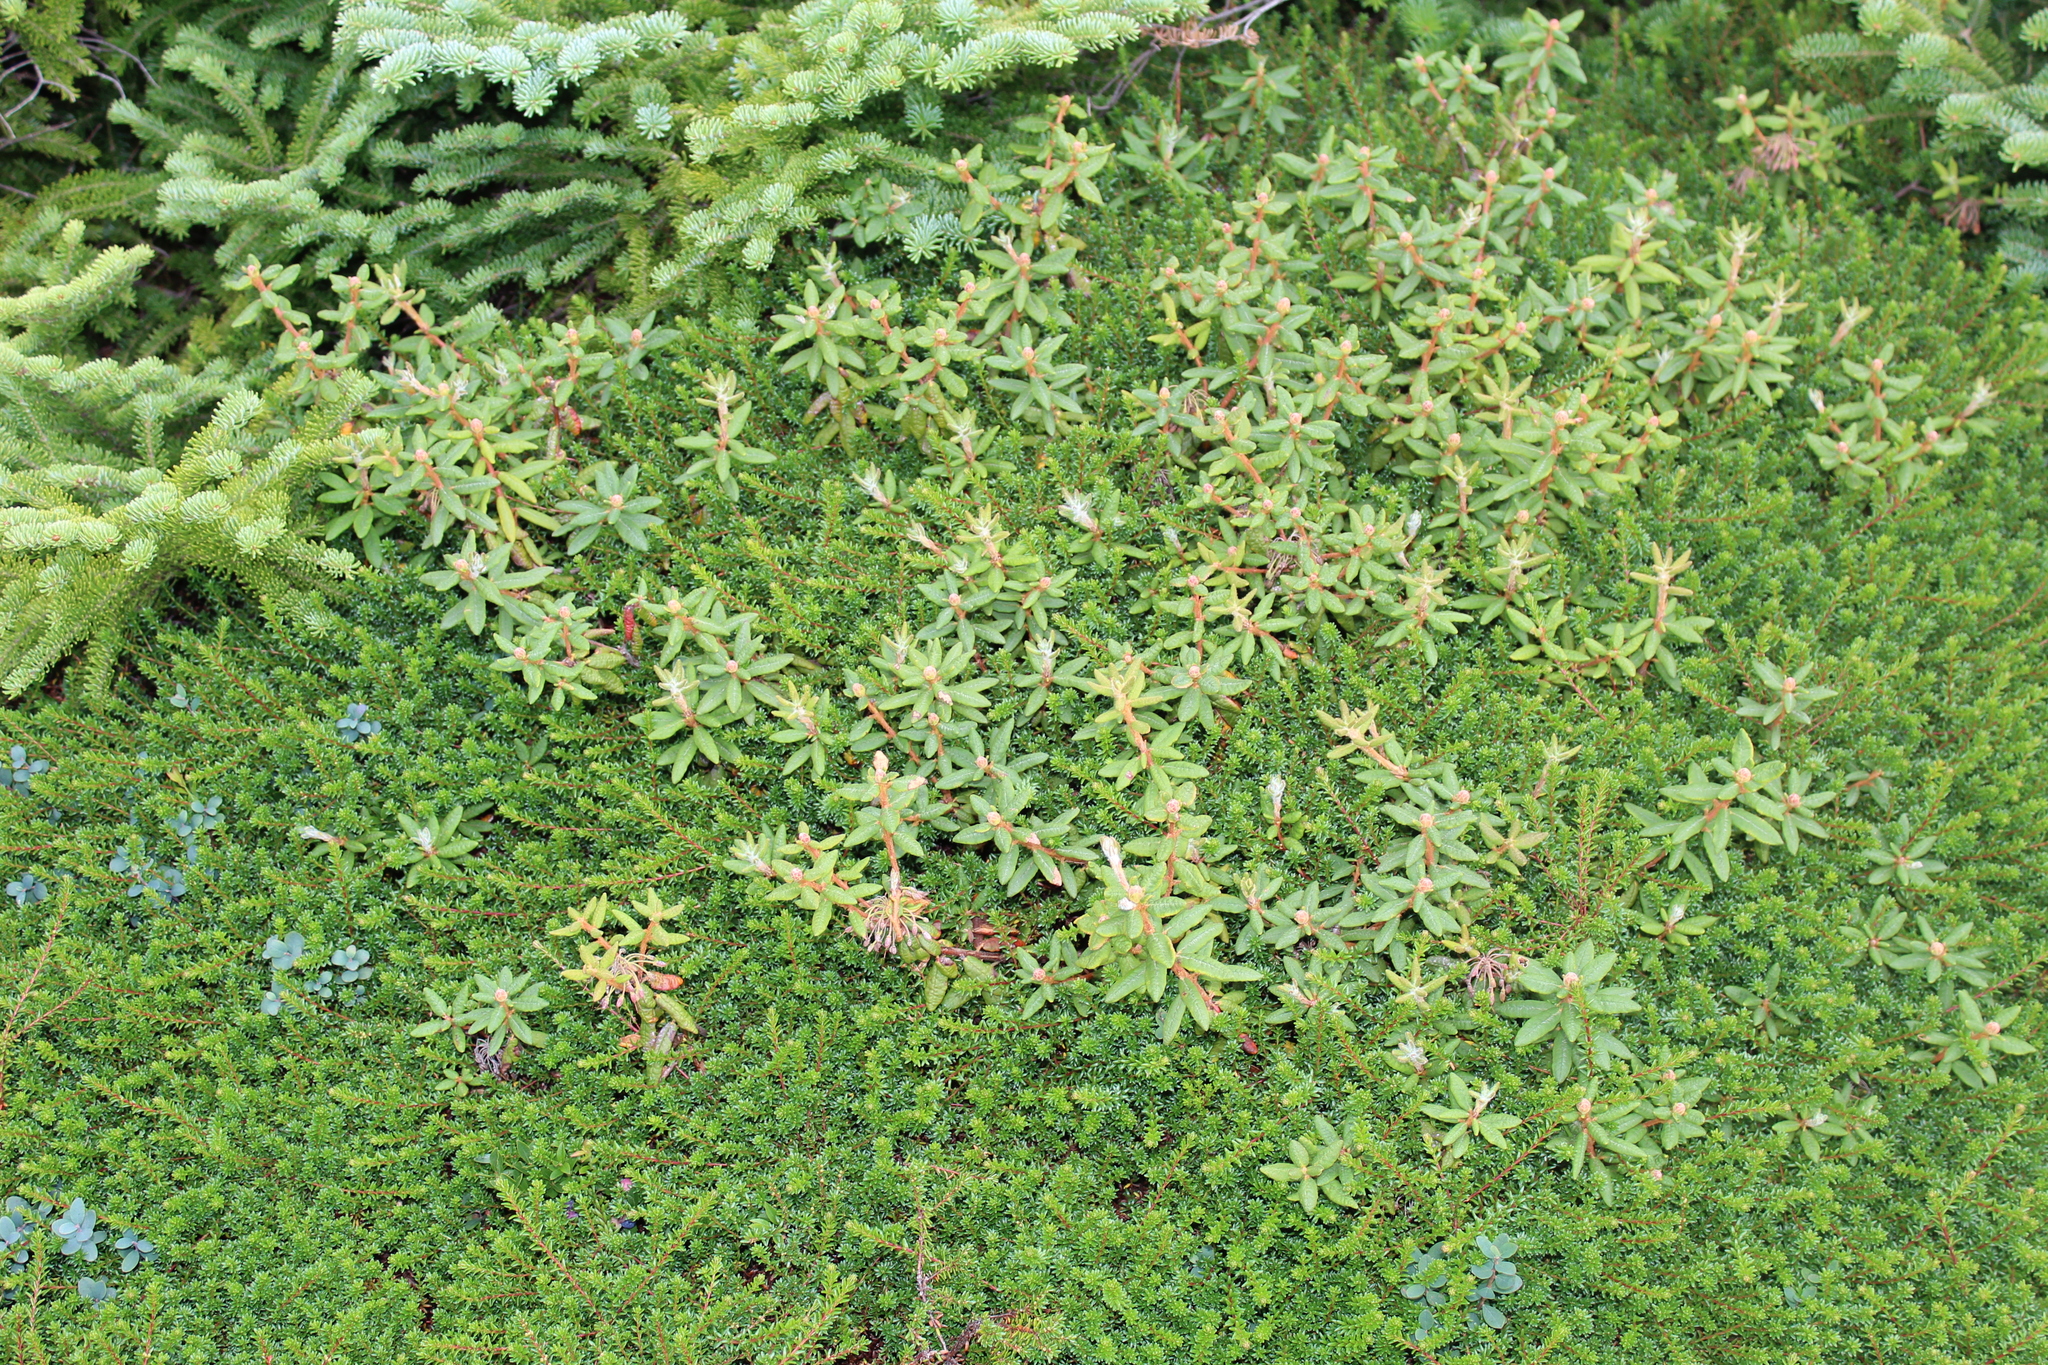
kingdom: Plantae
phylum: Tracheophyta
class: Magnoliopsida
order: Ericales
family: Ericaceae
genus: Empetrum
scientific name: Empetrum hermaphroditum
